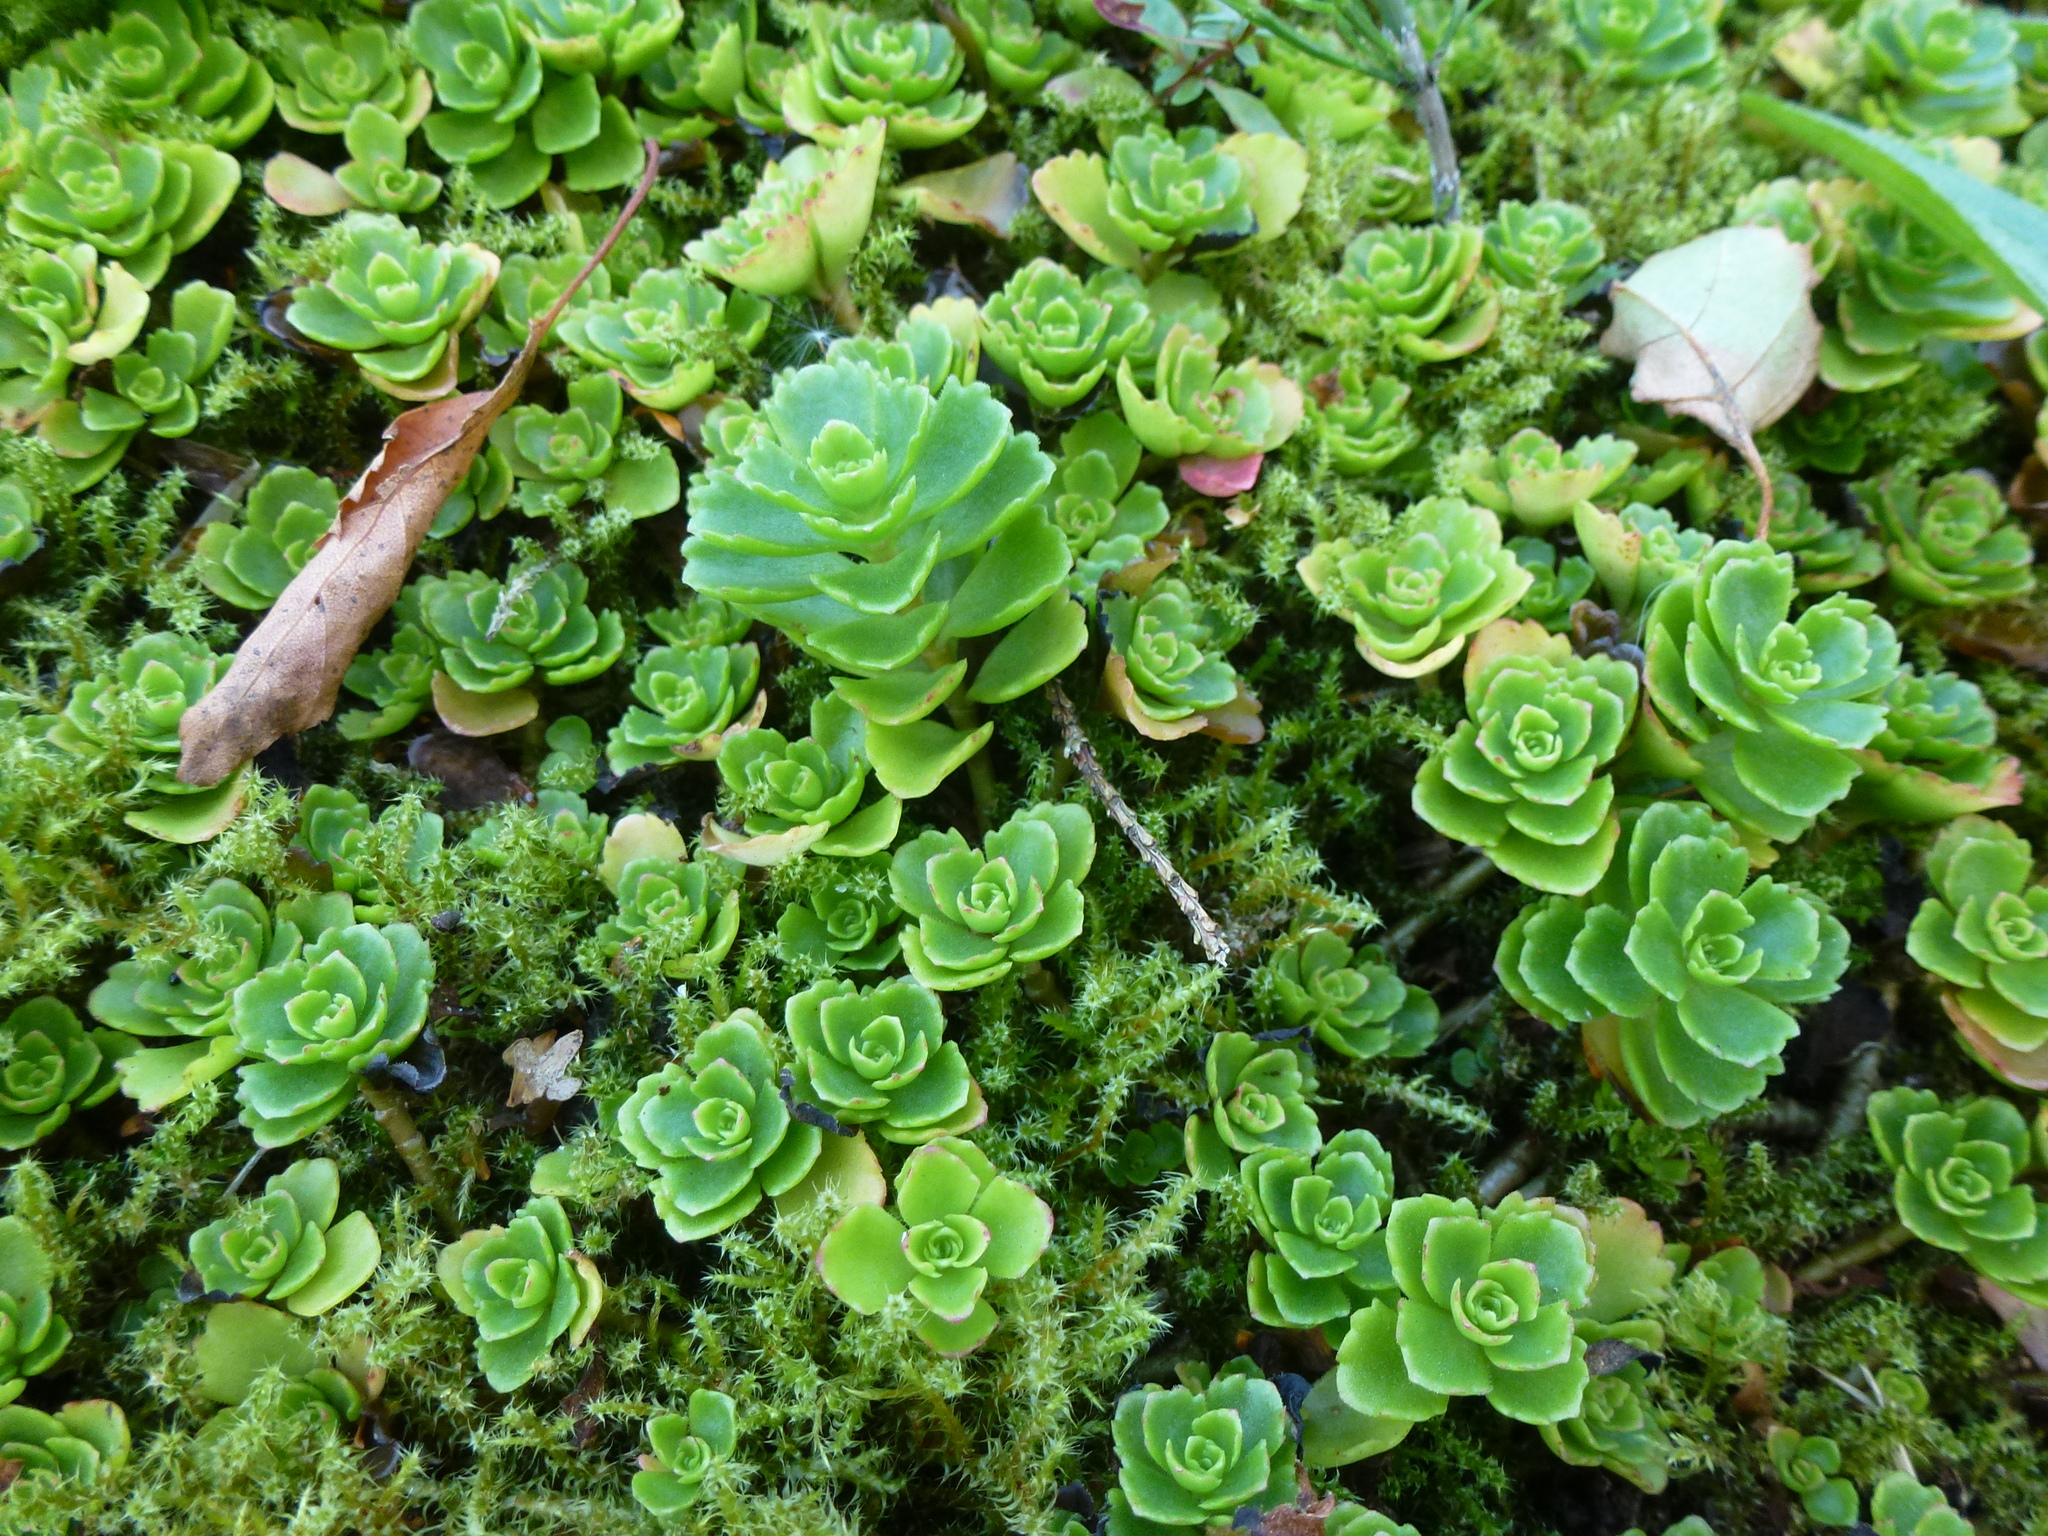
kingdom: Plantae
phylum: Tracheophyta
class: Magnoliopsida
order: Saxifragales
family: Crassulaceae
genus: Phedimus
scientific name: Phedimus spurius
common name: Caucasian stonecrop
